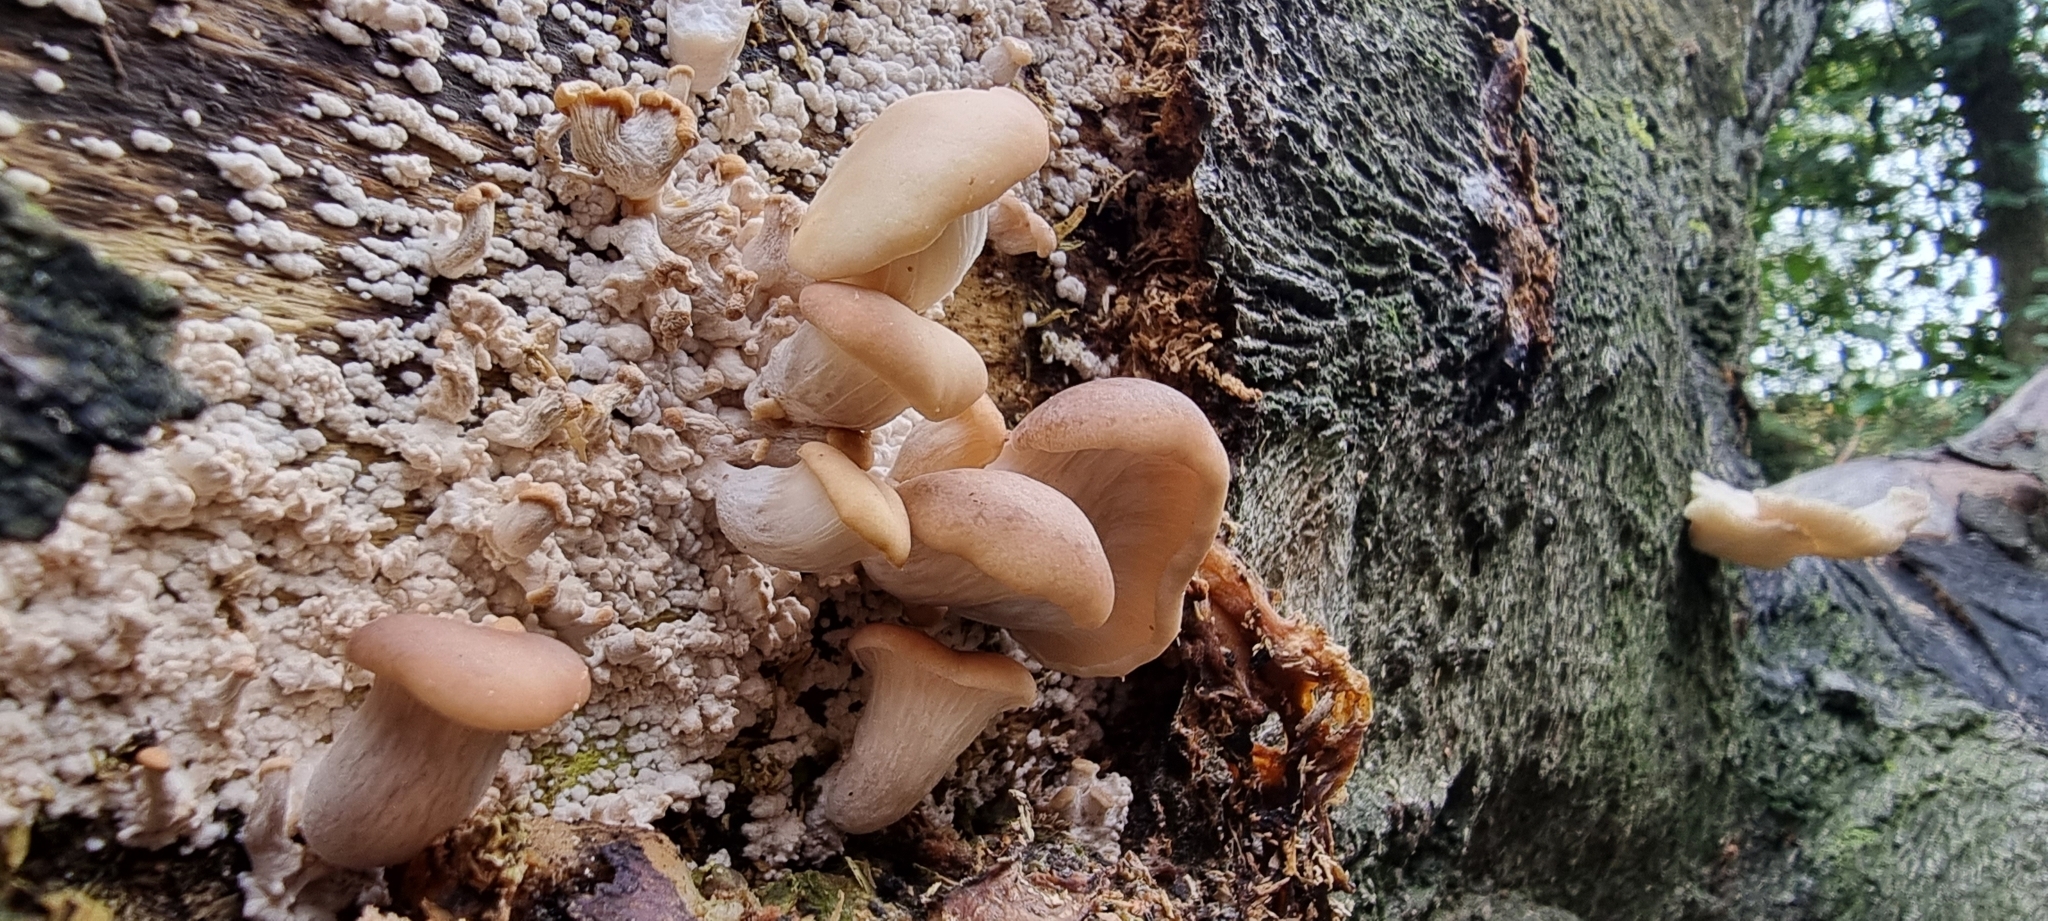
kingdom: Fungi
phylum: Basidiomycota
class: Agaricomycetes
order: Agaricales
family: Pleurotaceae
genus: Pleurotus
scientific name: Pleurotus ostreatus
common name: Oyster mushroom
